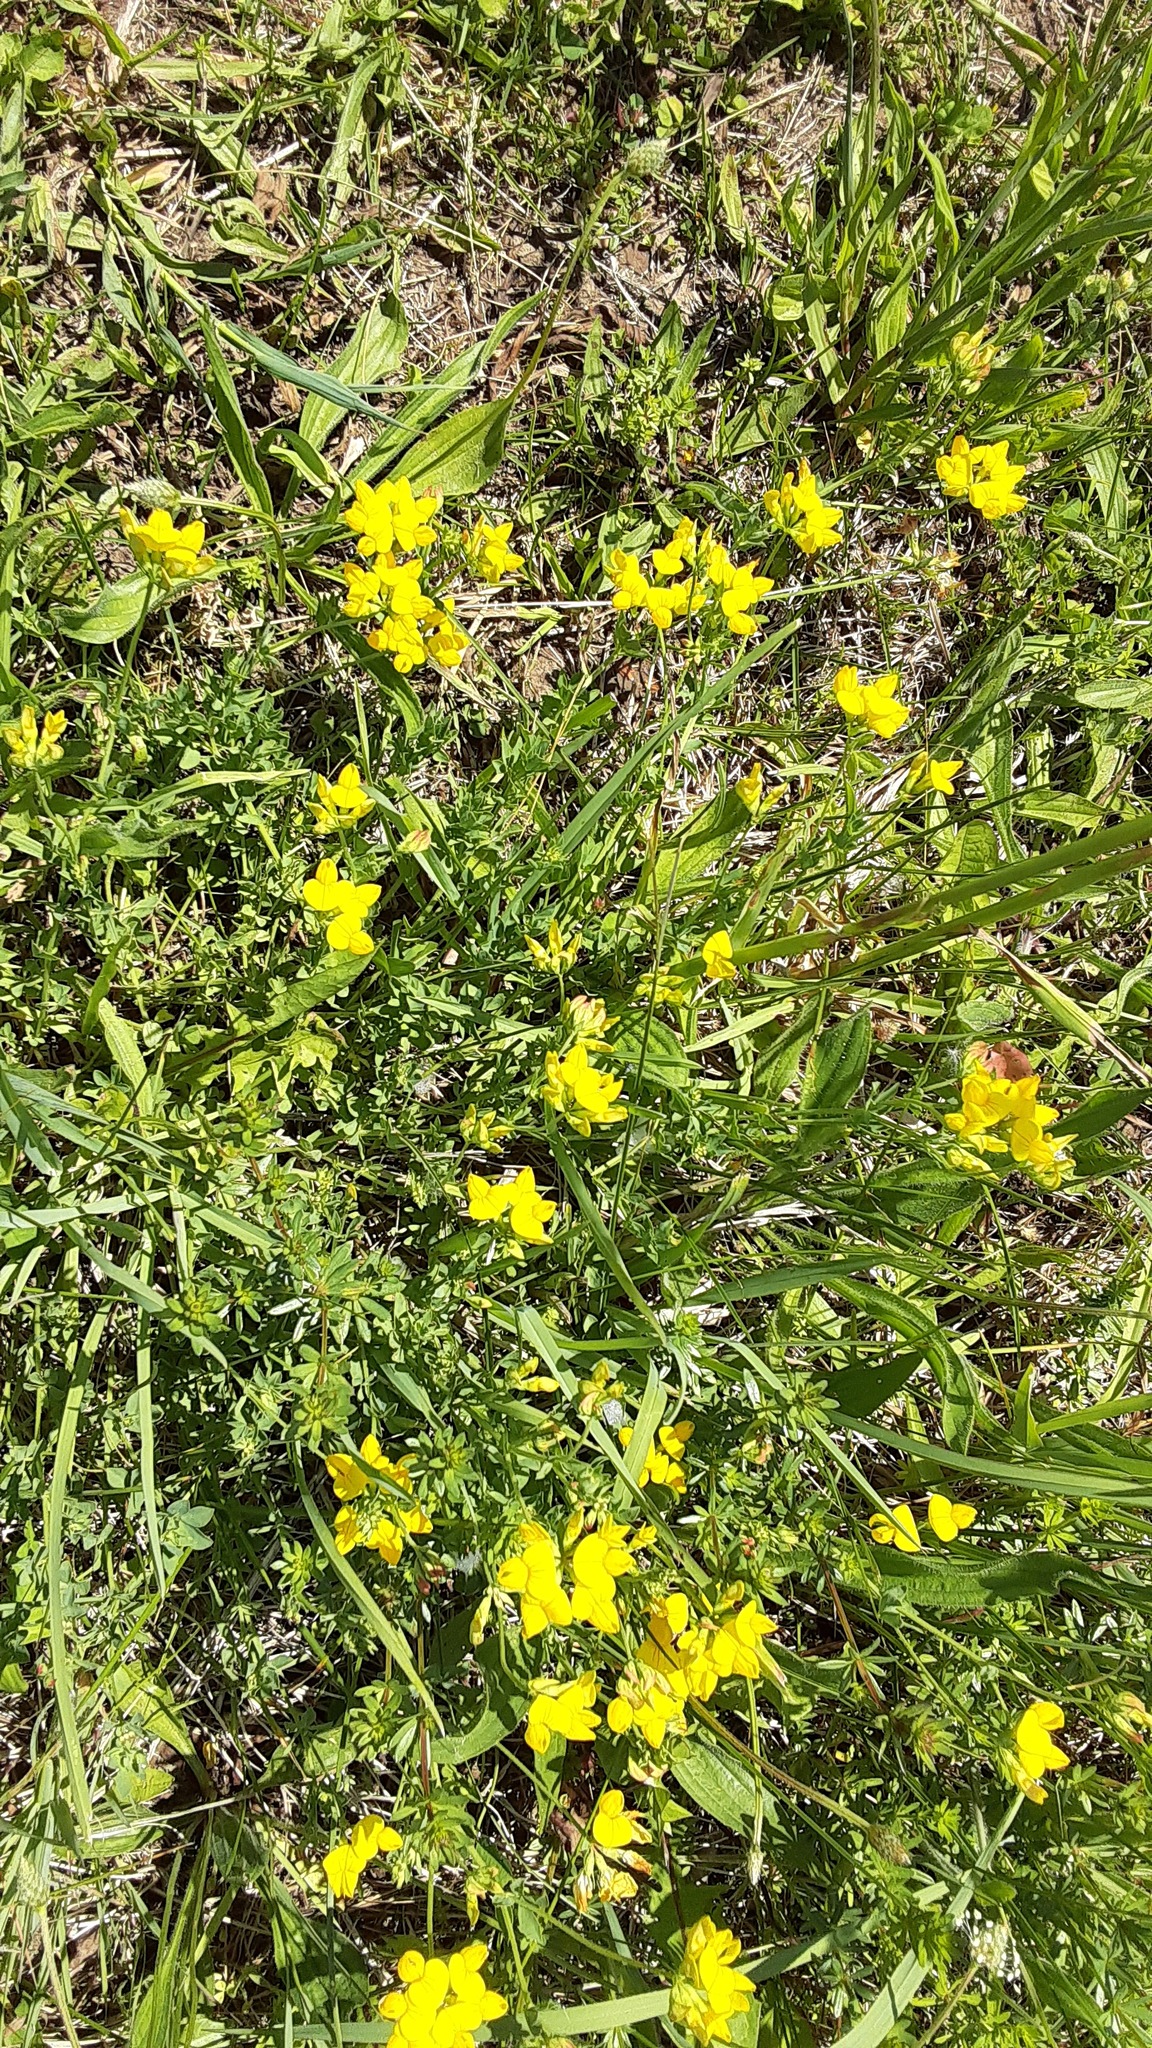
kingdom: Plantae
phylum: Tracheophyta
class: Magnoliopsida
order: Fabales
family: Fabaceae
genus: Lotus
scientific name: Lotus corniculatus
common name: Common bird's-foot-trefoil
